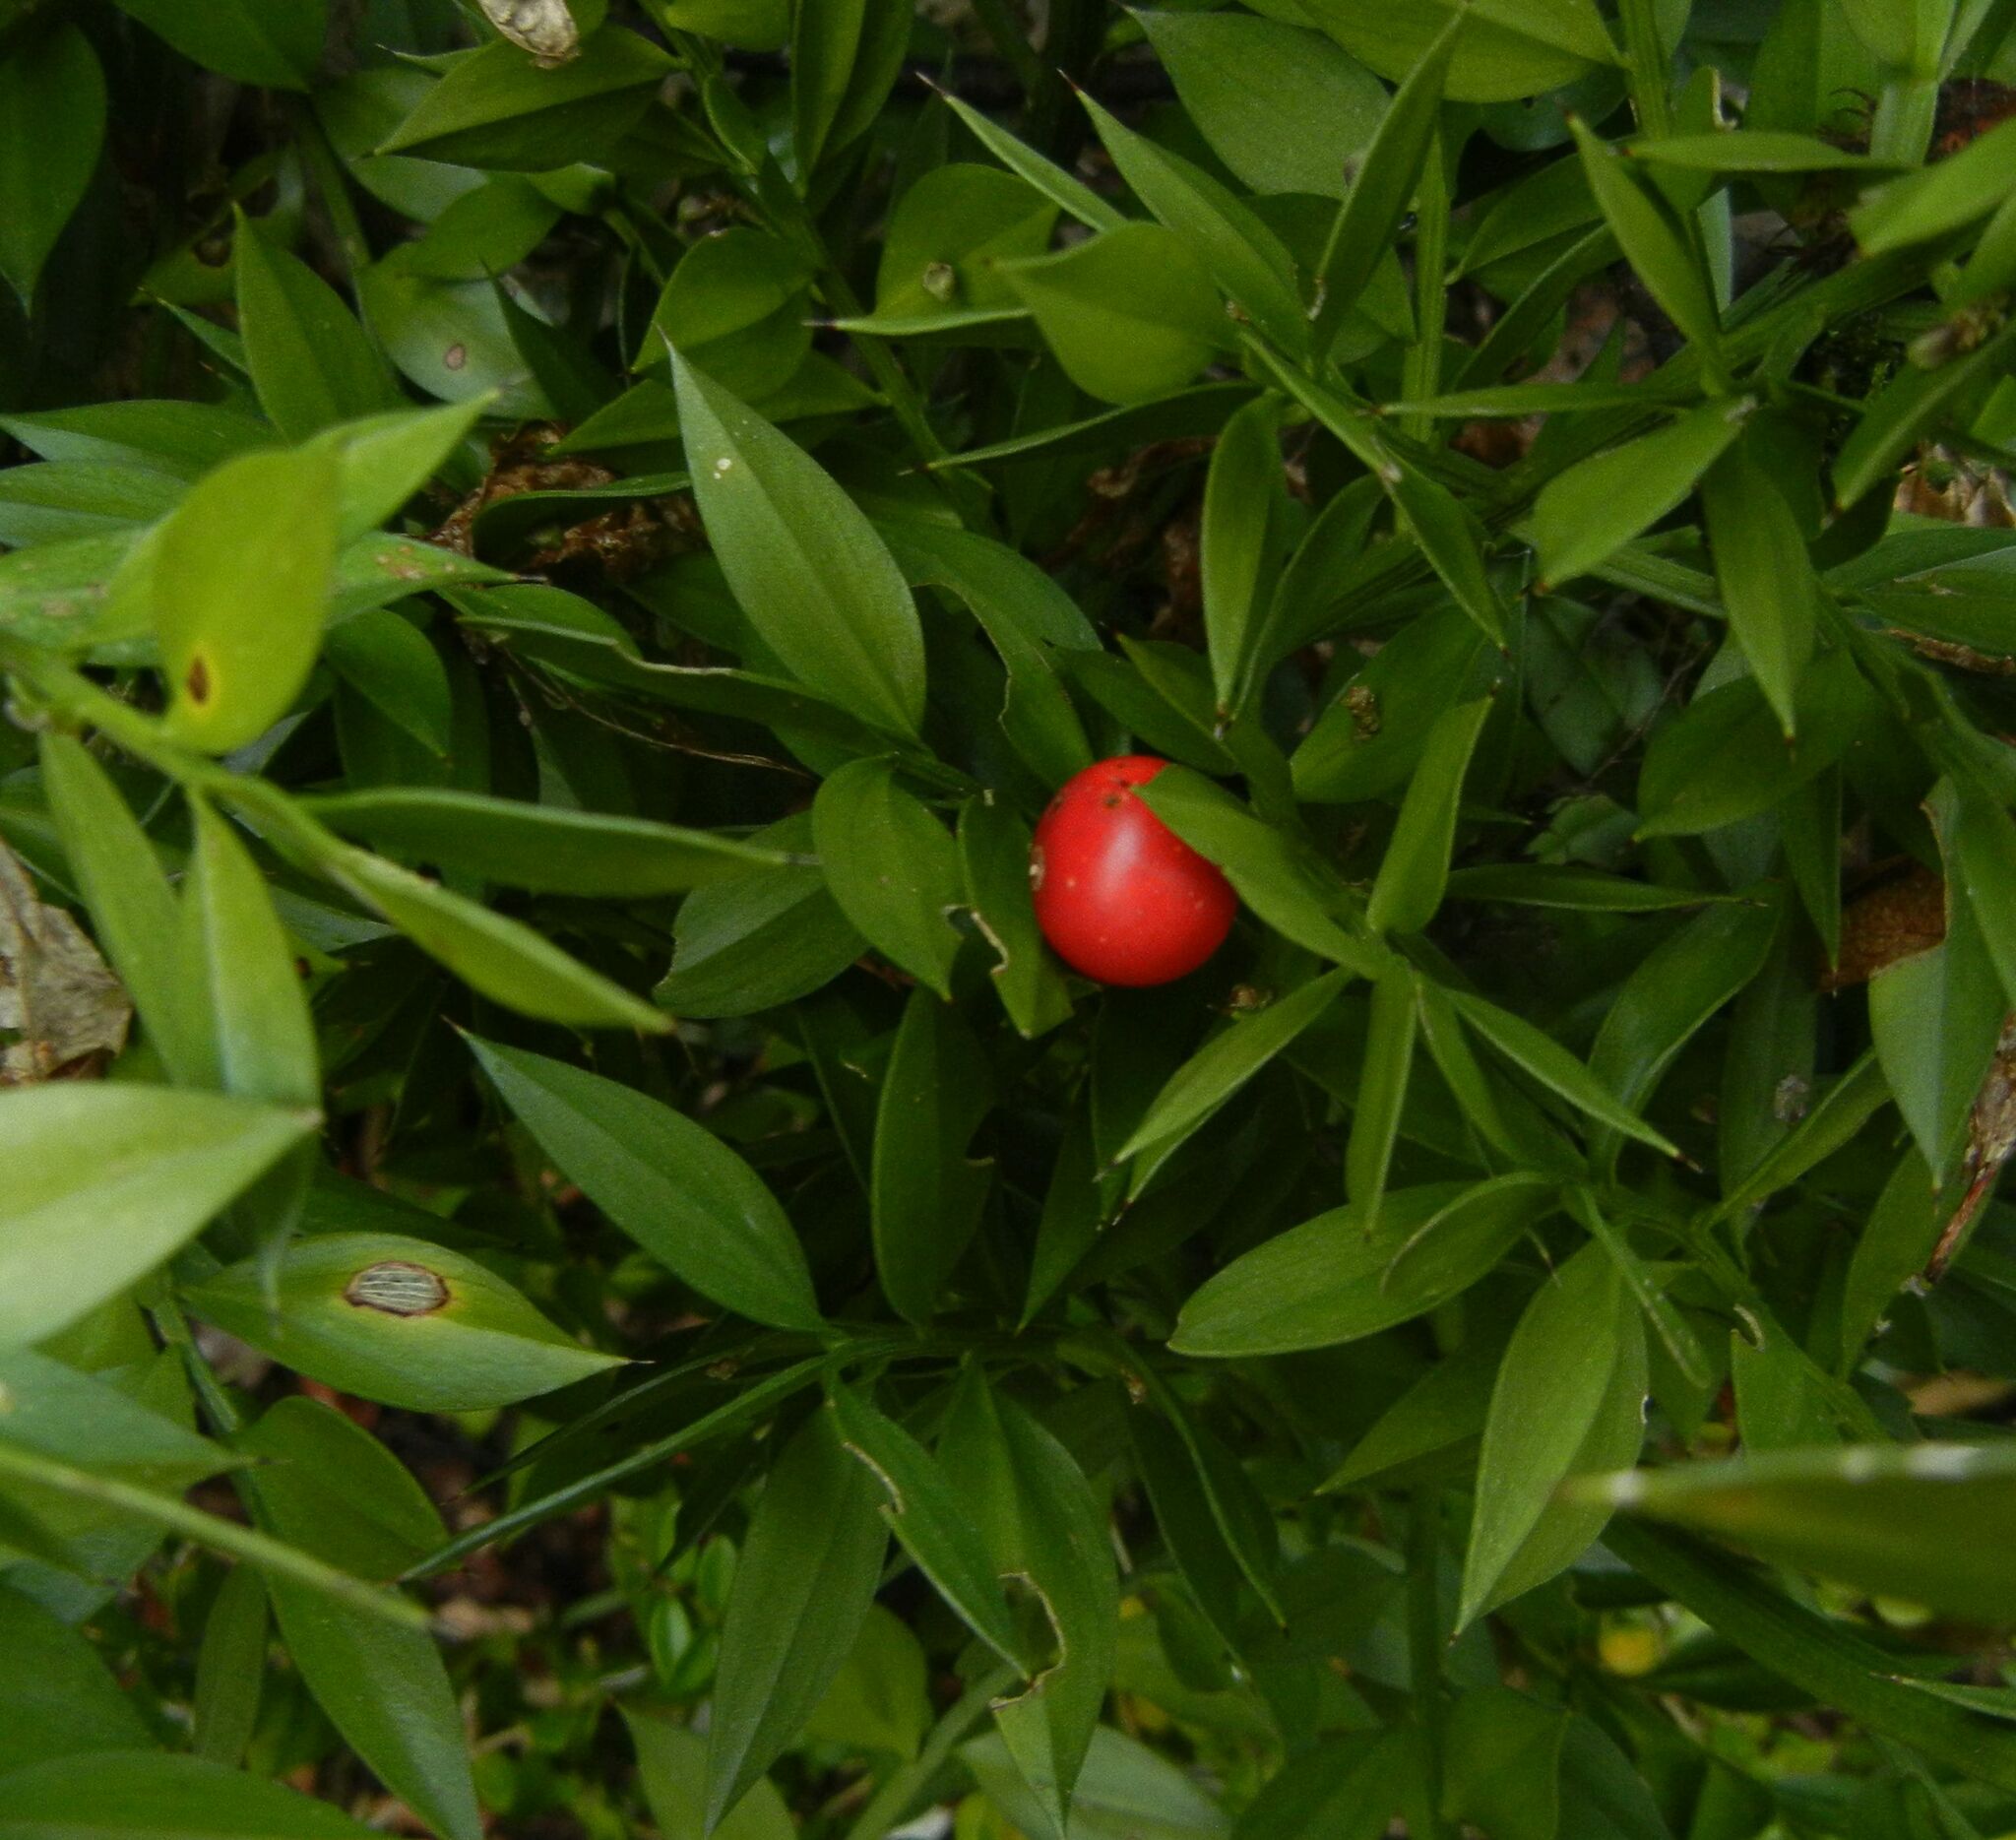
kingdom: Plantae
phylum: Tracheophyta
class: Liliopsida
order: Asparagales
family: Asparagaceae
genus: Ruscus
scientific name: Ruscus aculeatus
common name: Butcher's-broom
